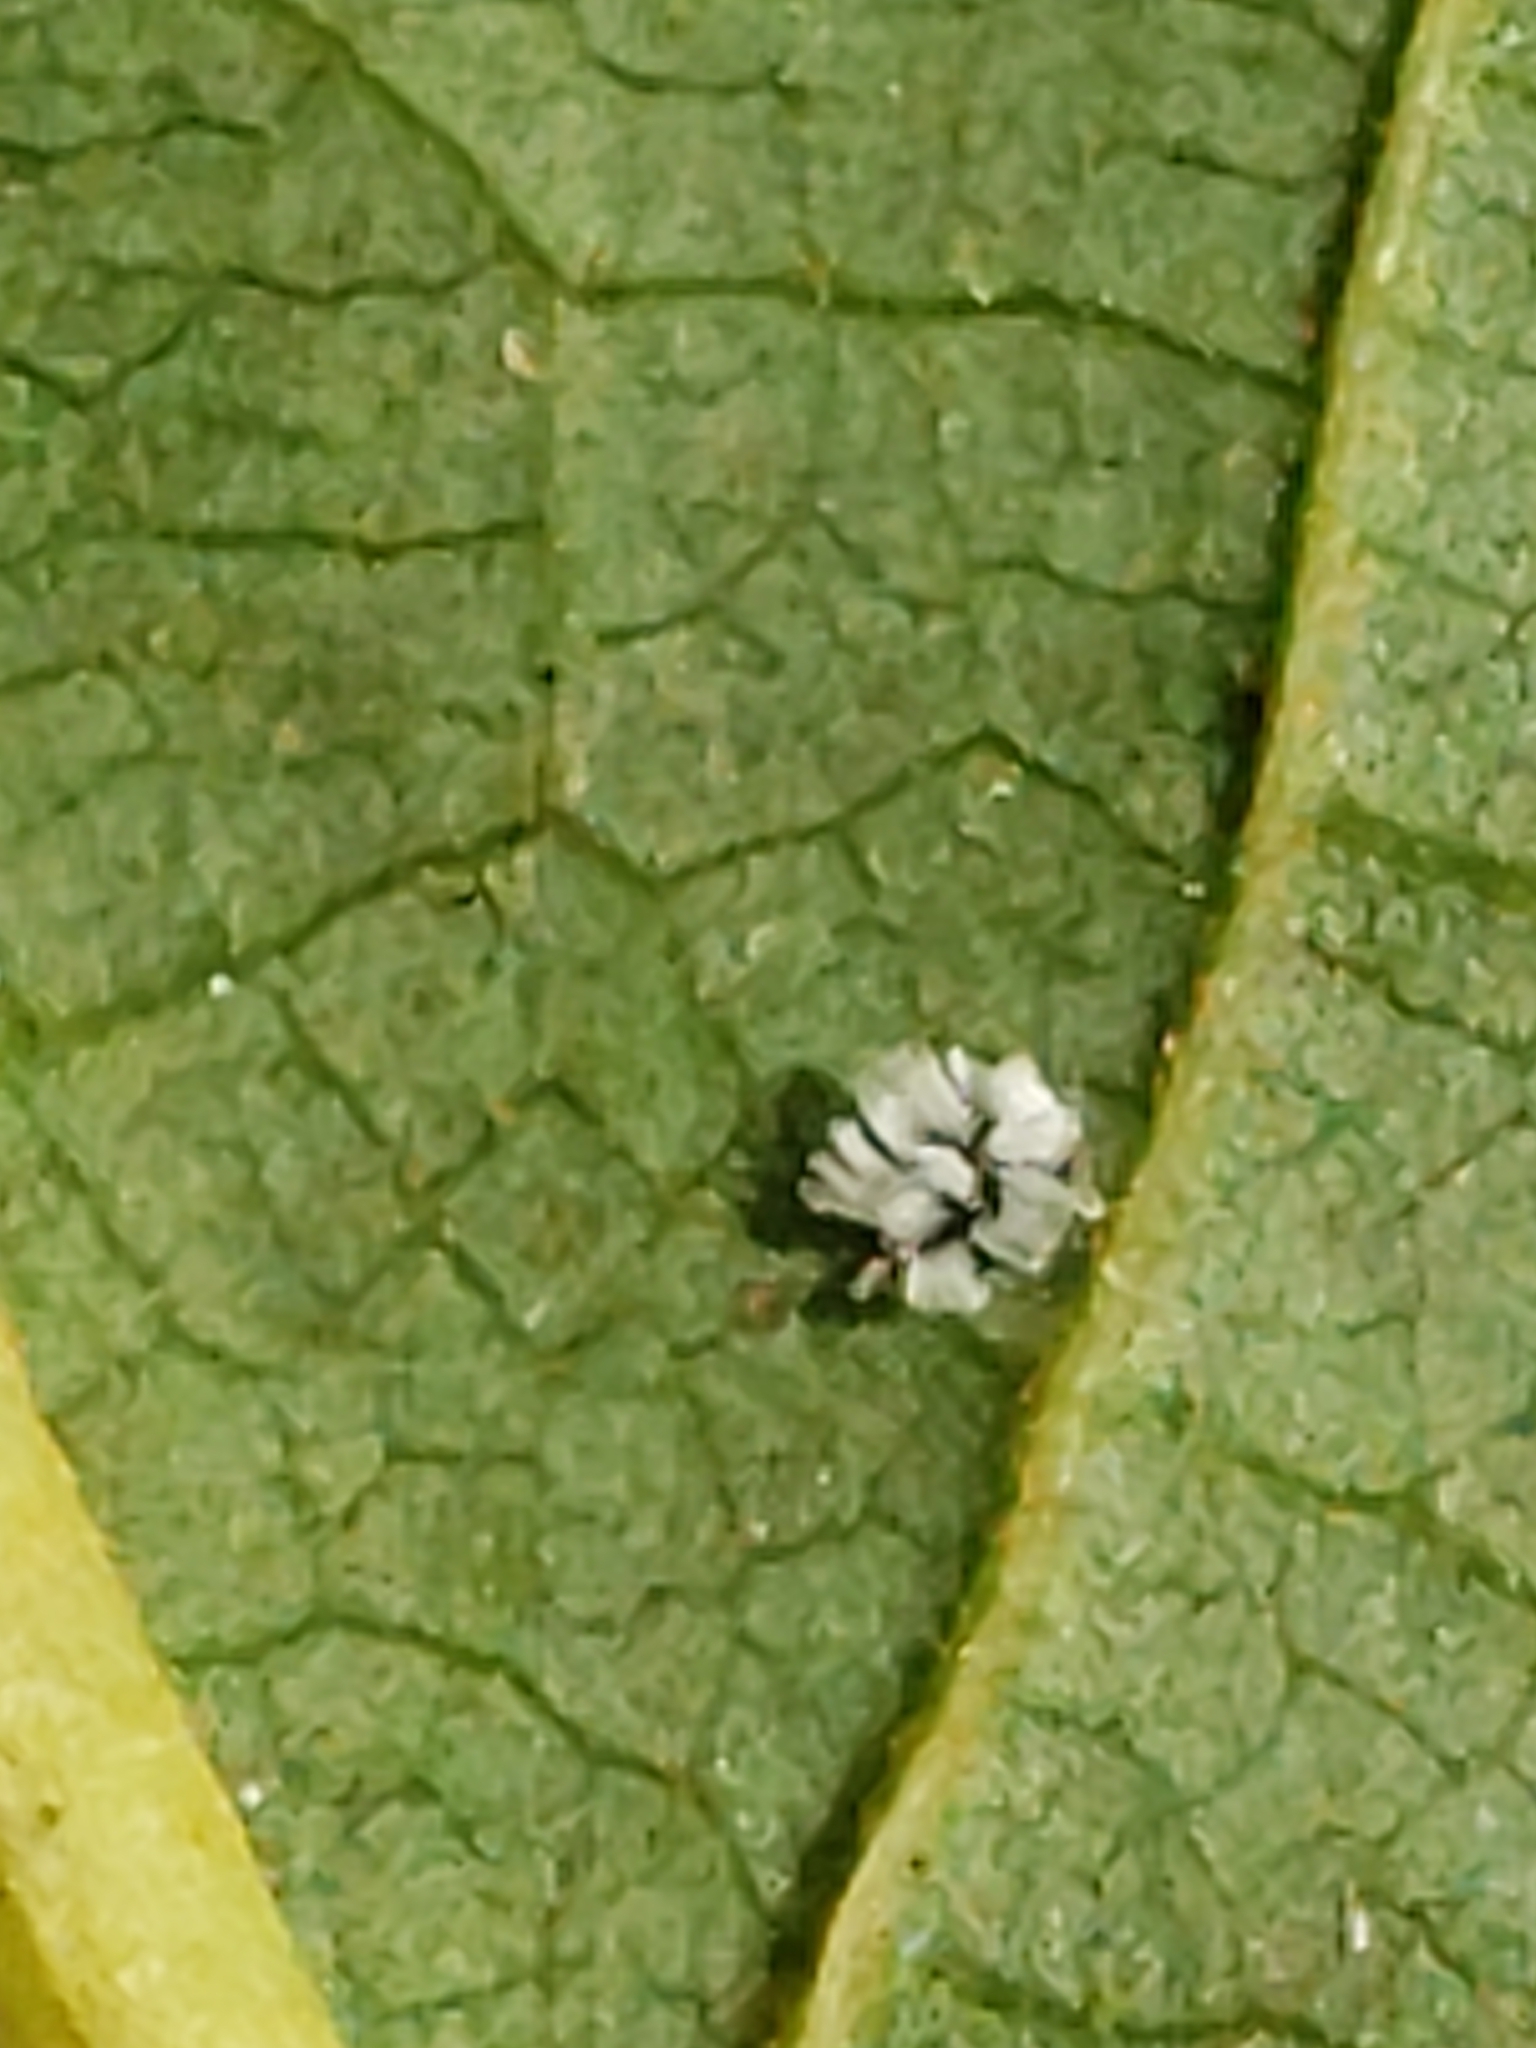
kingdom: Animalia
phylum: Arthropoda
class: Insecta
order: Hemiptera
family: Aleyrodidae
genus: Aleuroplatus
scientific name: Aleuroplatus coronata
